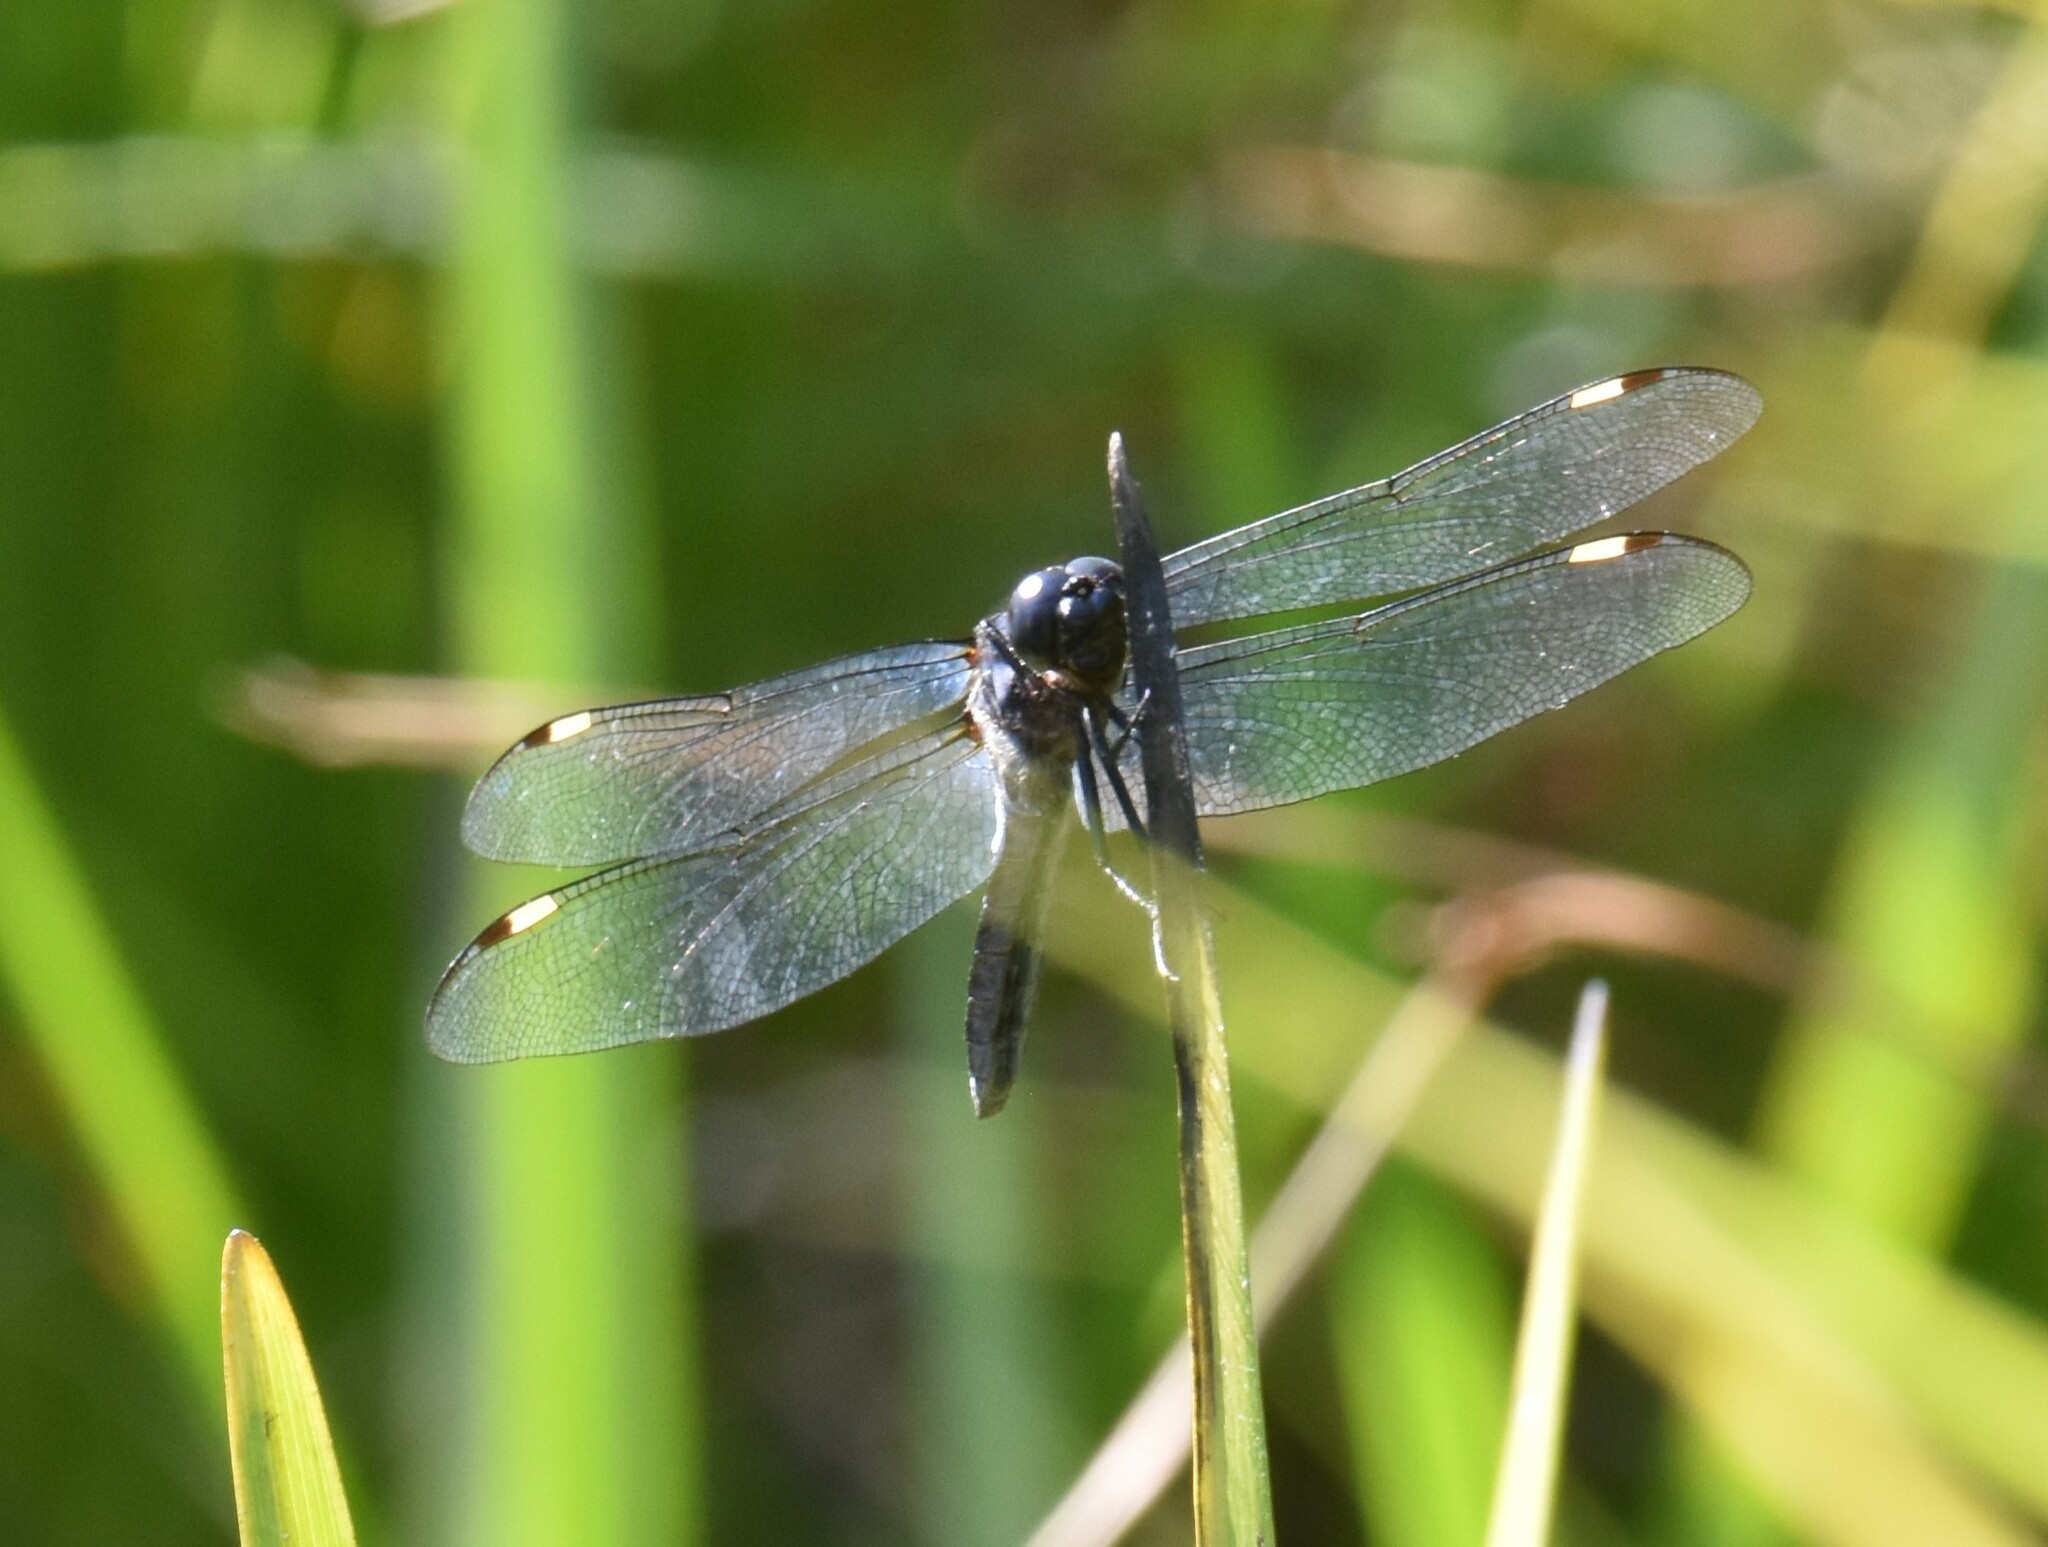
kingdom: Animalia
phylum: Arthropoda
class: Insecta
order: Odonata
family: Libellulidae
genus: Libellula
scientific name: Libellula cyanea
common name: Spangled skimmer
